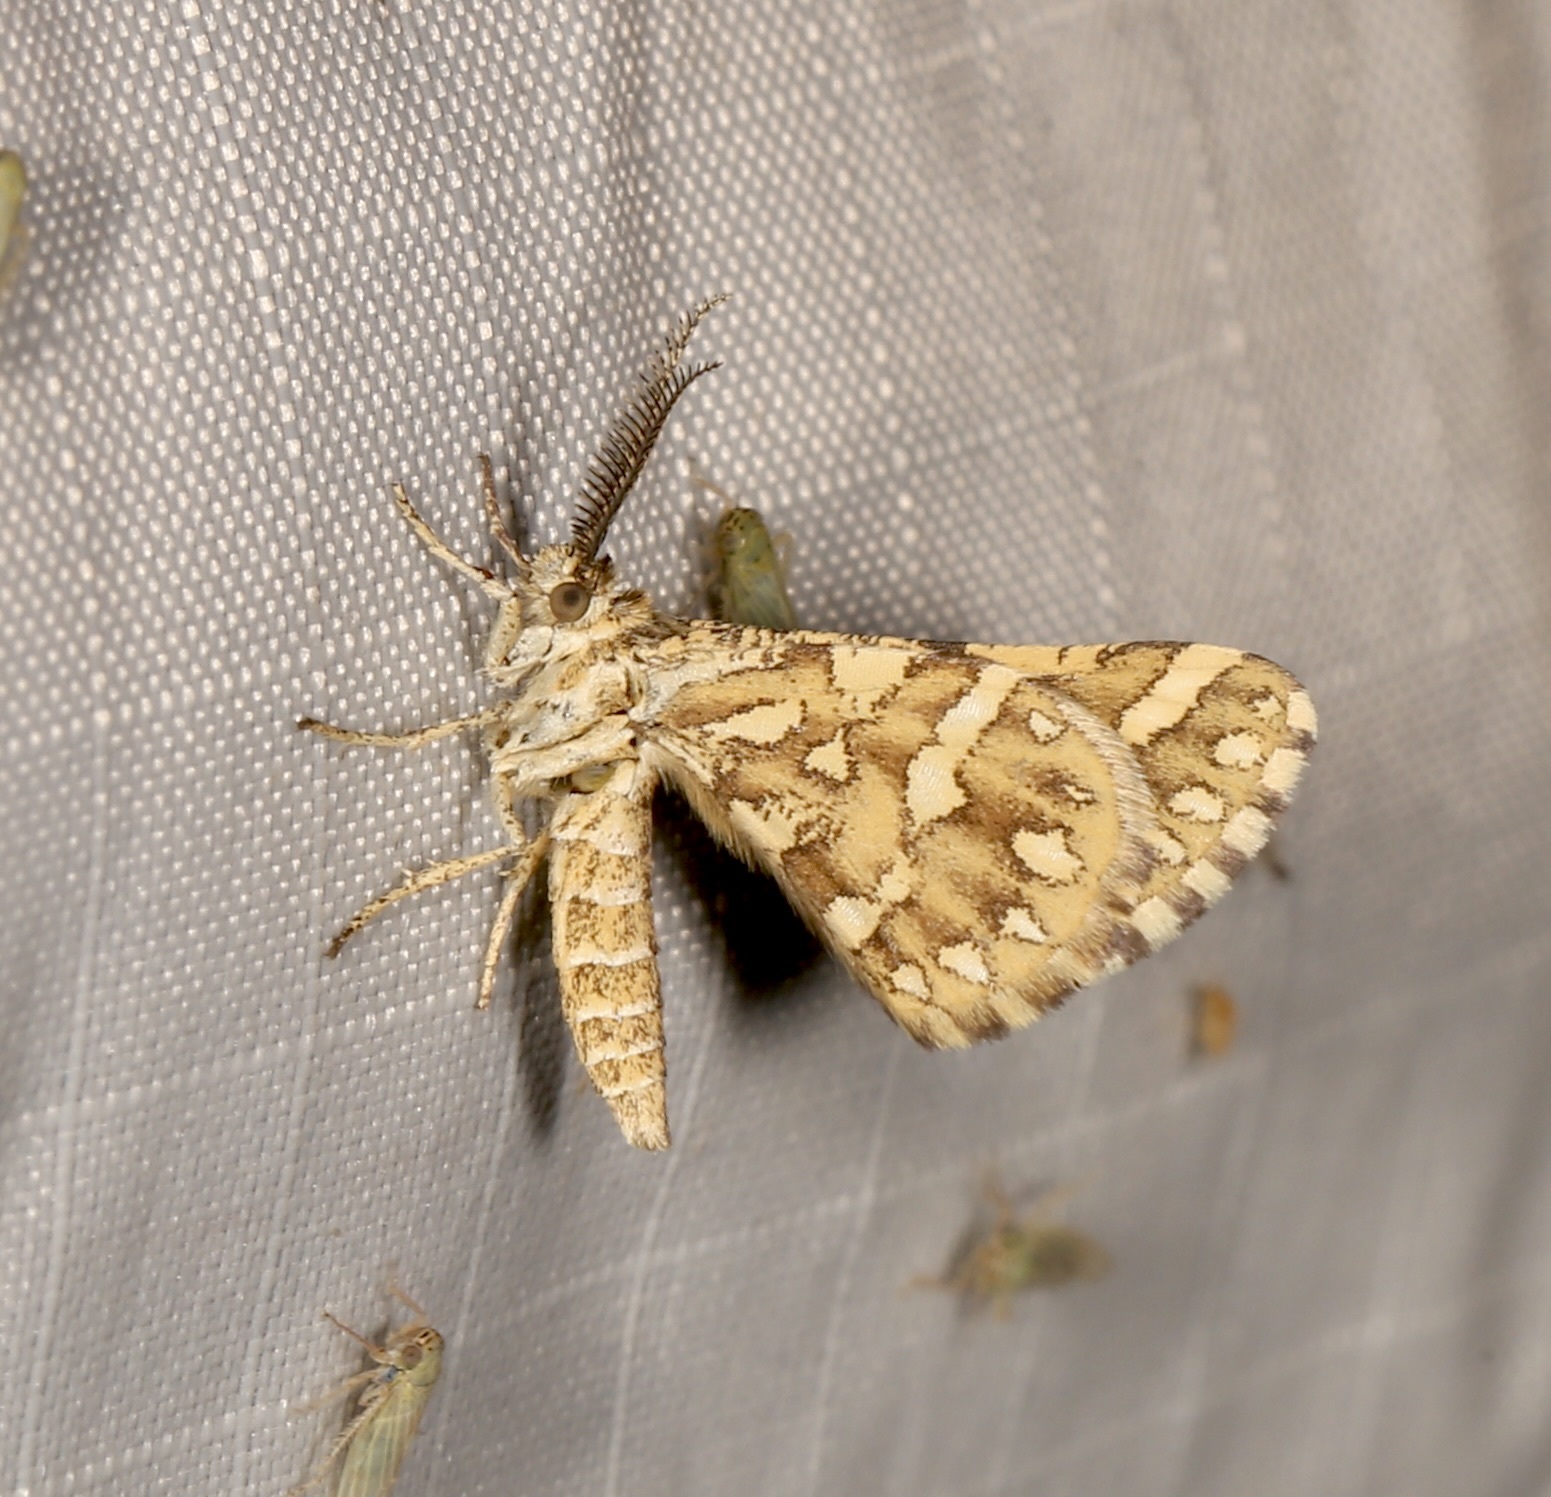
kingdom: Animalia
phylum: Arthropoda
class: Insecta
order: Lepidoptera
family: Geometridae
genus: Narraga
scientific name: Narraga fimetaria
